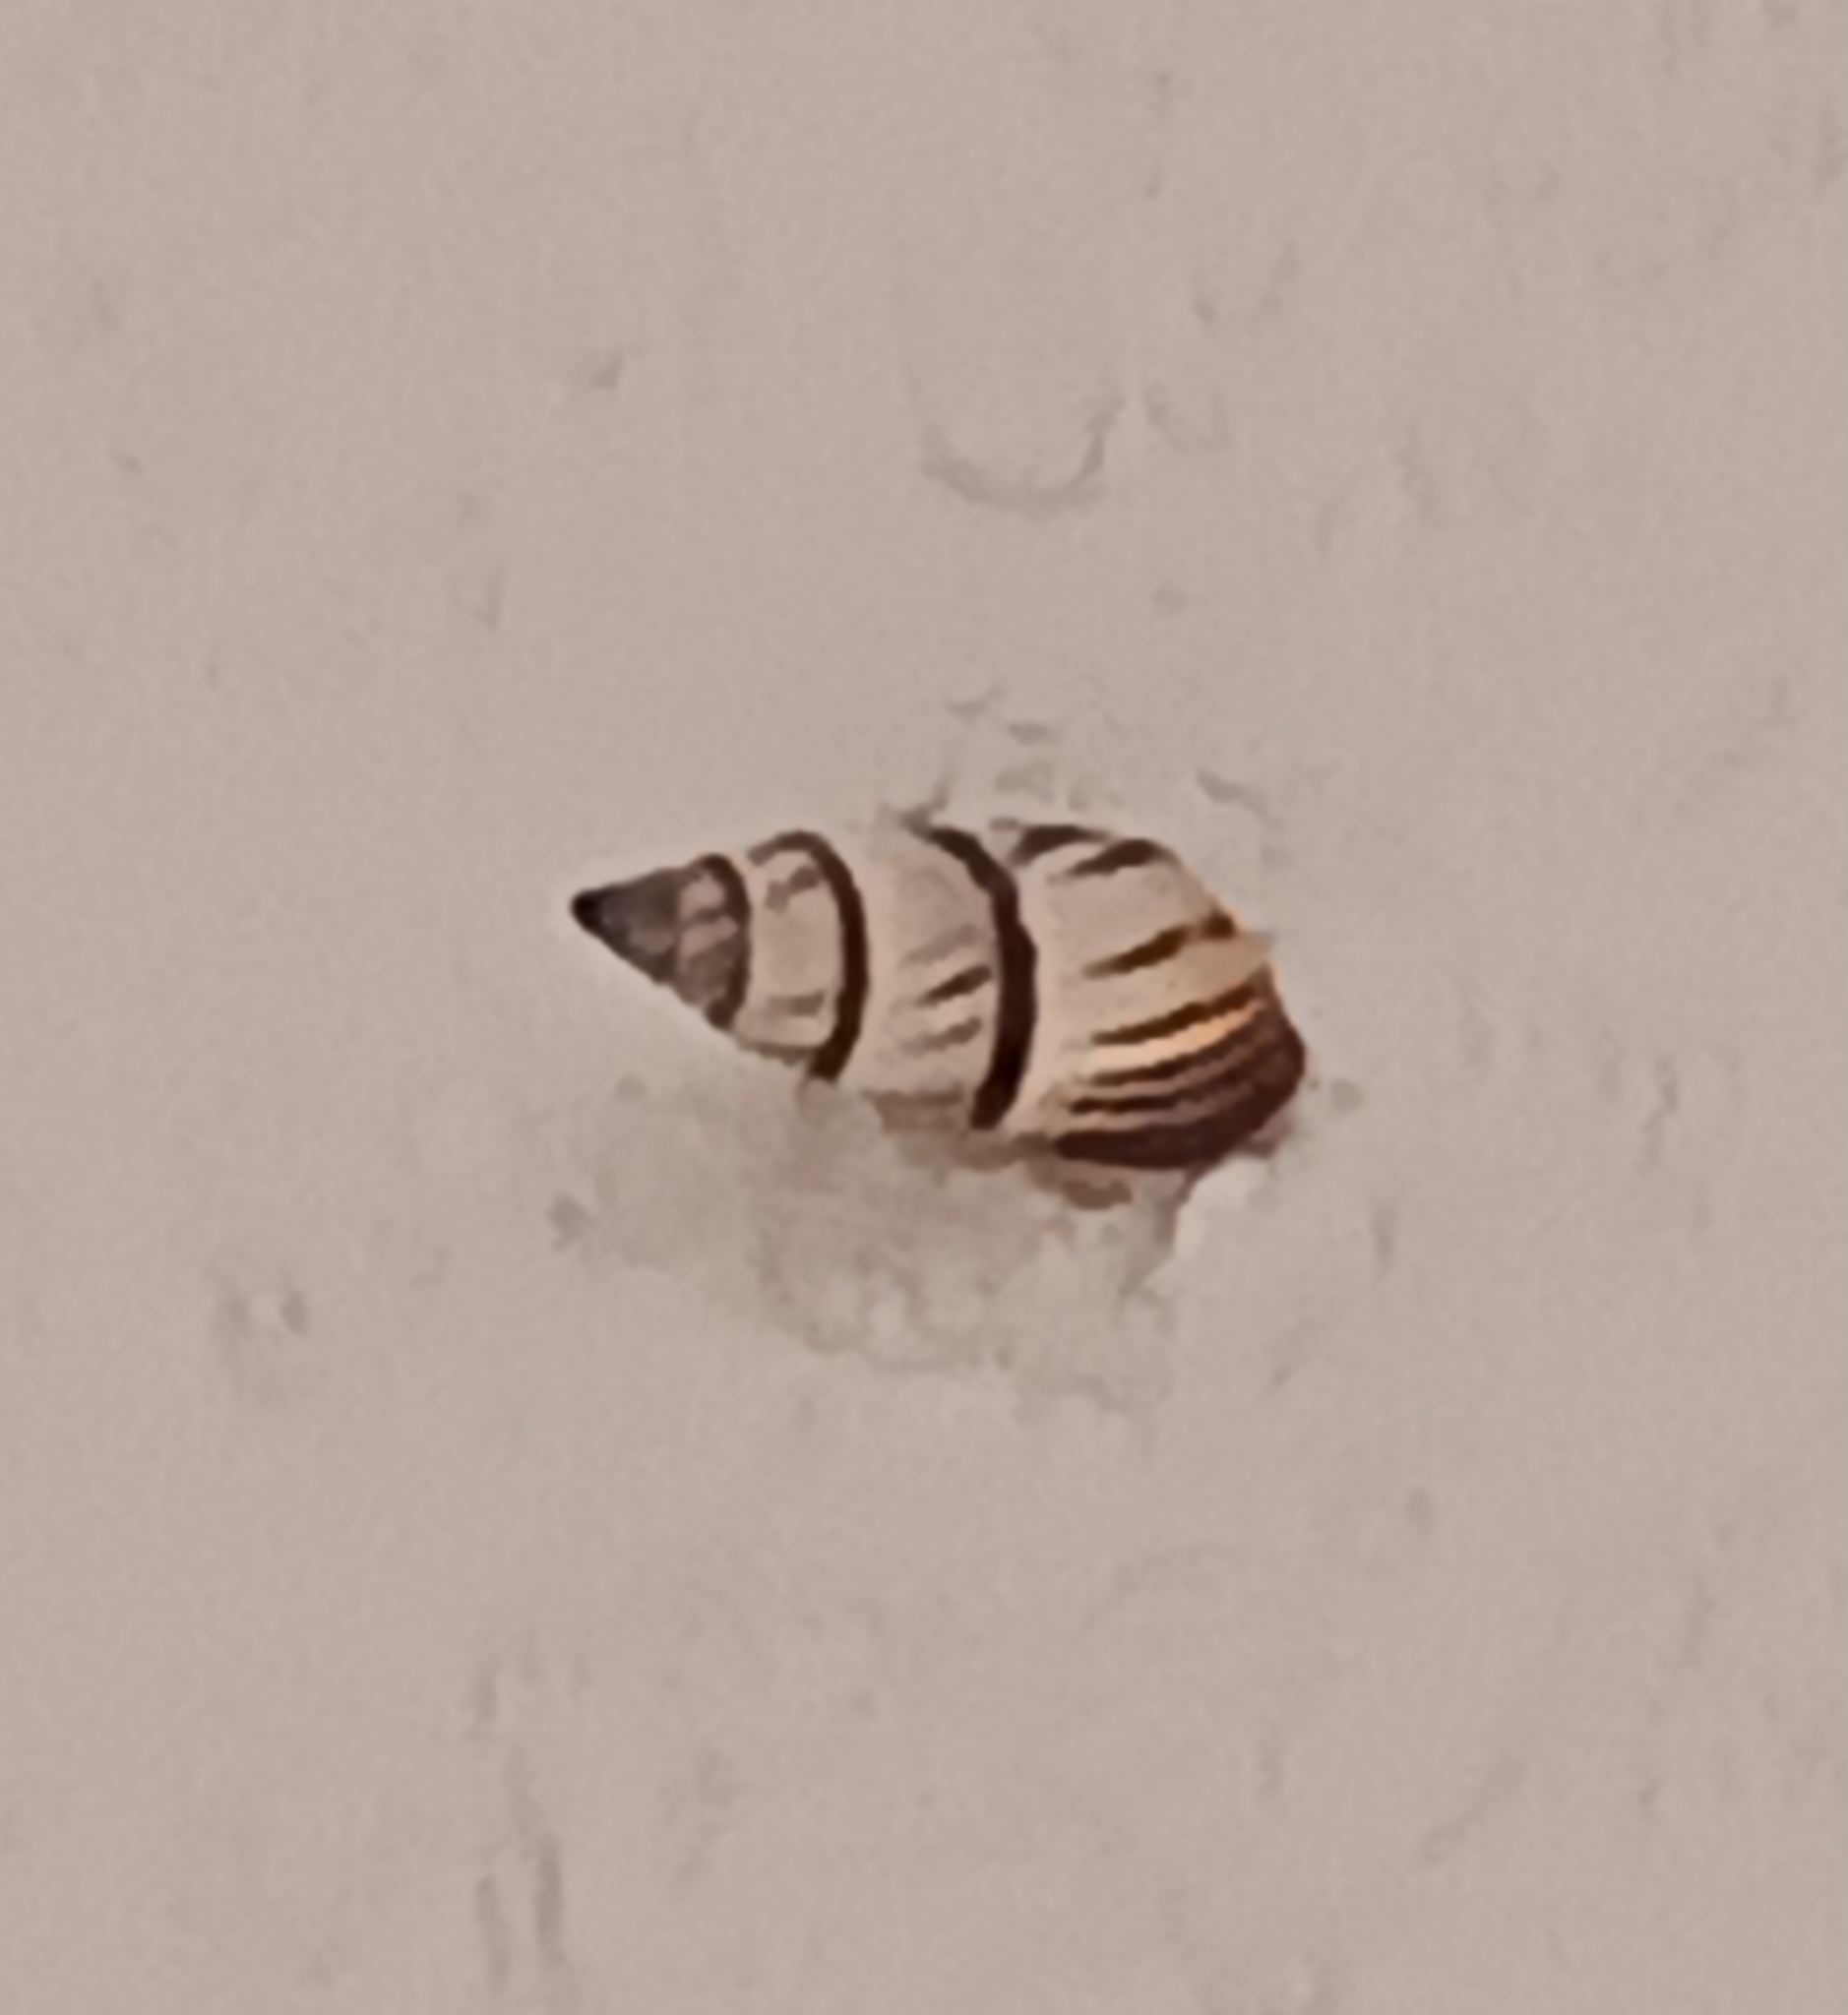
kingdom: Animalia
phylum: Mollusca
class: Gastropoda
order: Stylommatophora
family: Bulimulidae
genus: Drymaeus
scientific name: Drymaeus
